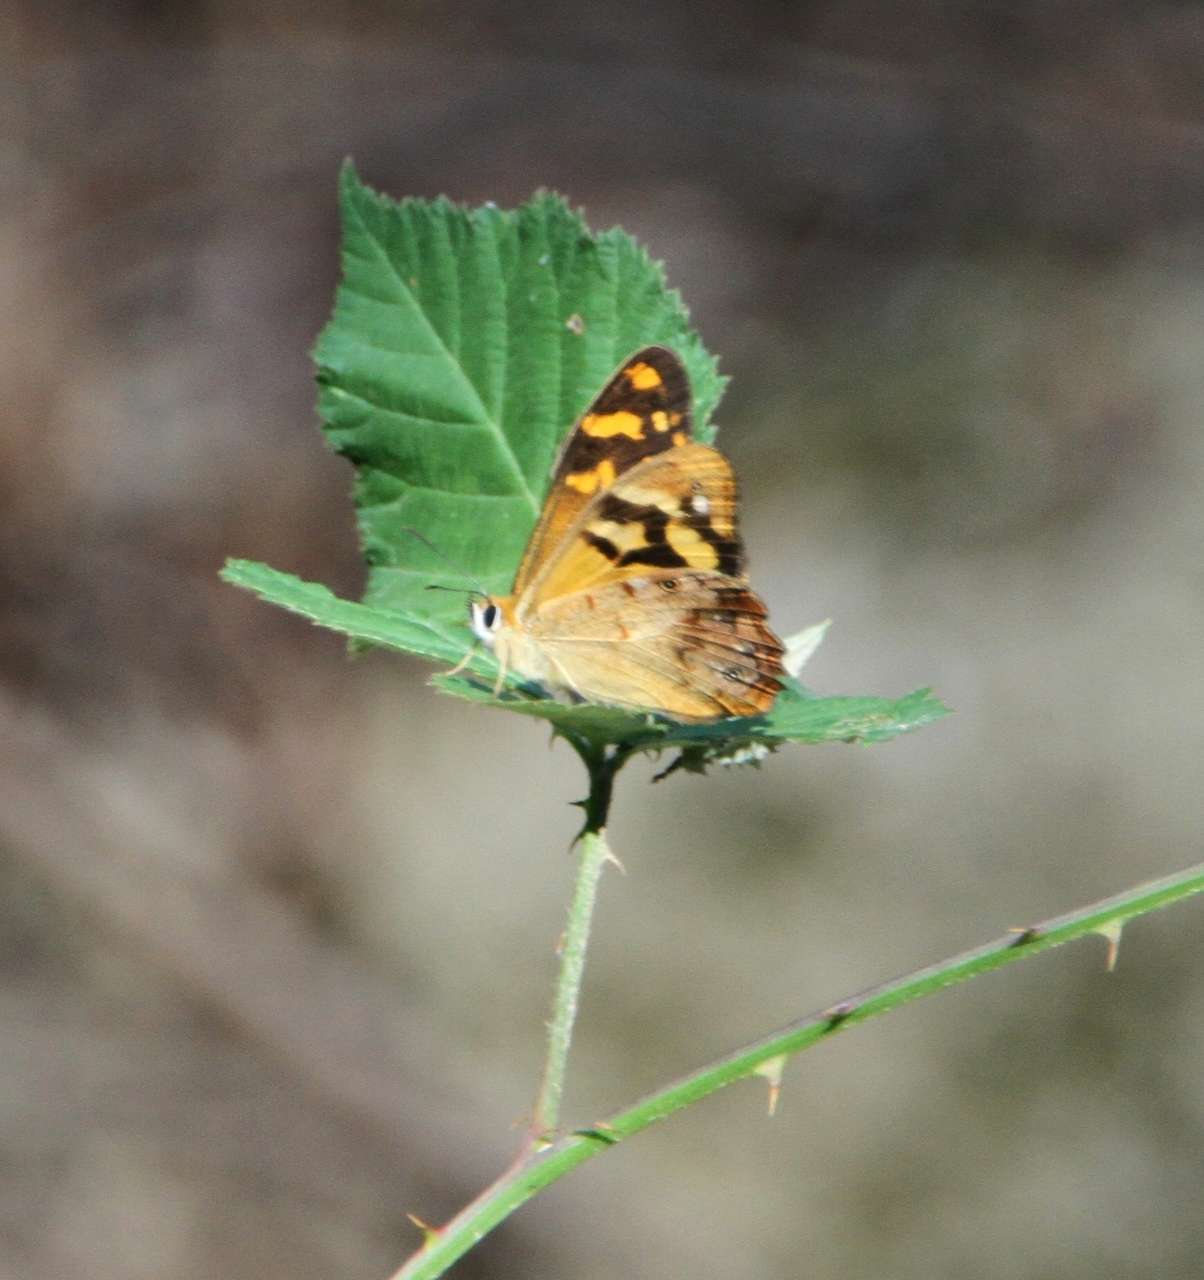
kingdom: Animalia
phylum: Arthropoda
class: Insecta
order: Lepidoptera
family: Nymphalidae
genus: Heteronympha
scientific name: Heteronympha banksii
